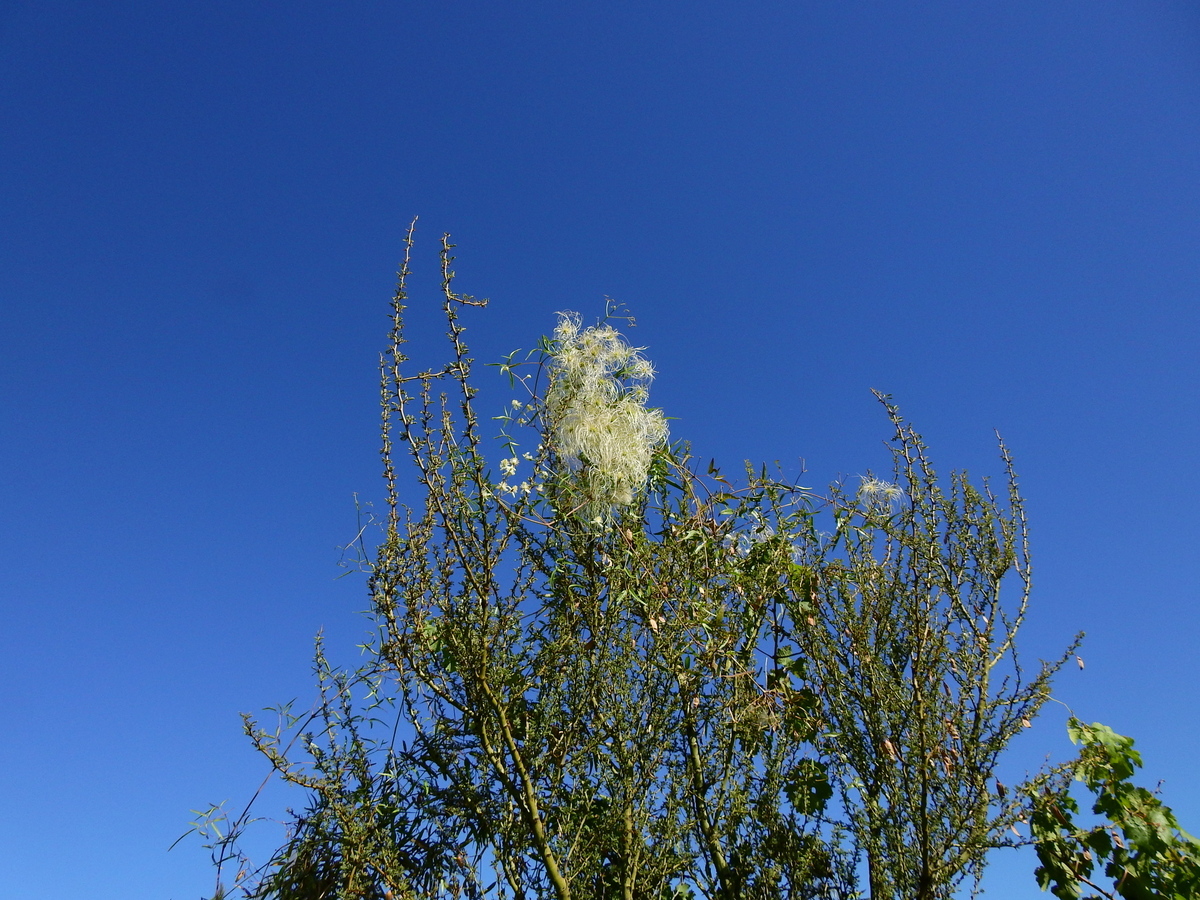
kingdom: Plantae
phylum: Tracheophyta
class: Magnoliopsida
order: Ranunculales
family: Ranunculaceae
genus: Clematis
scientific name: Clematis montevidensis
